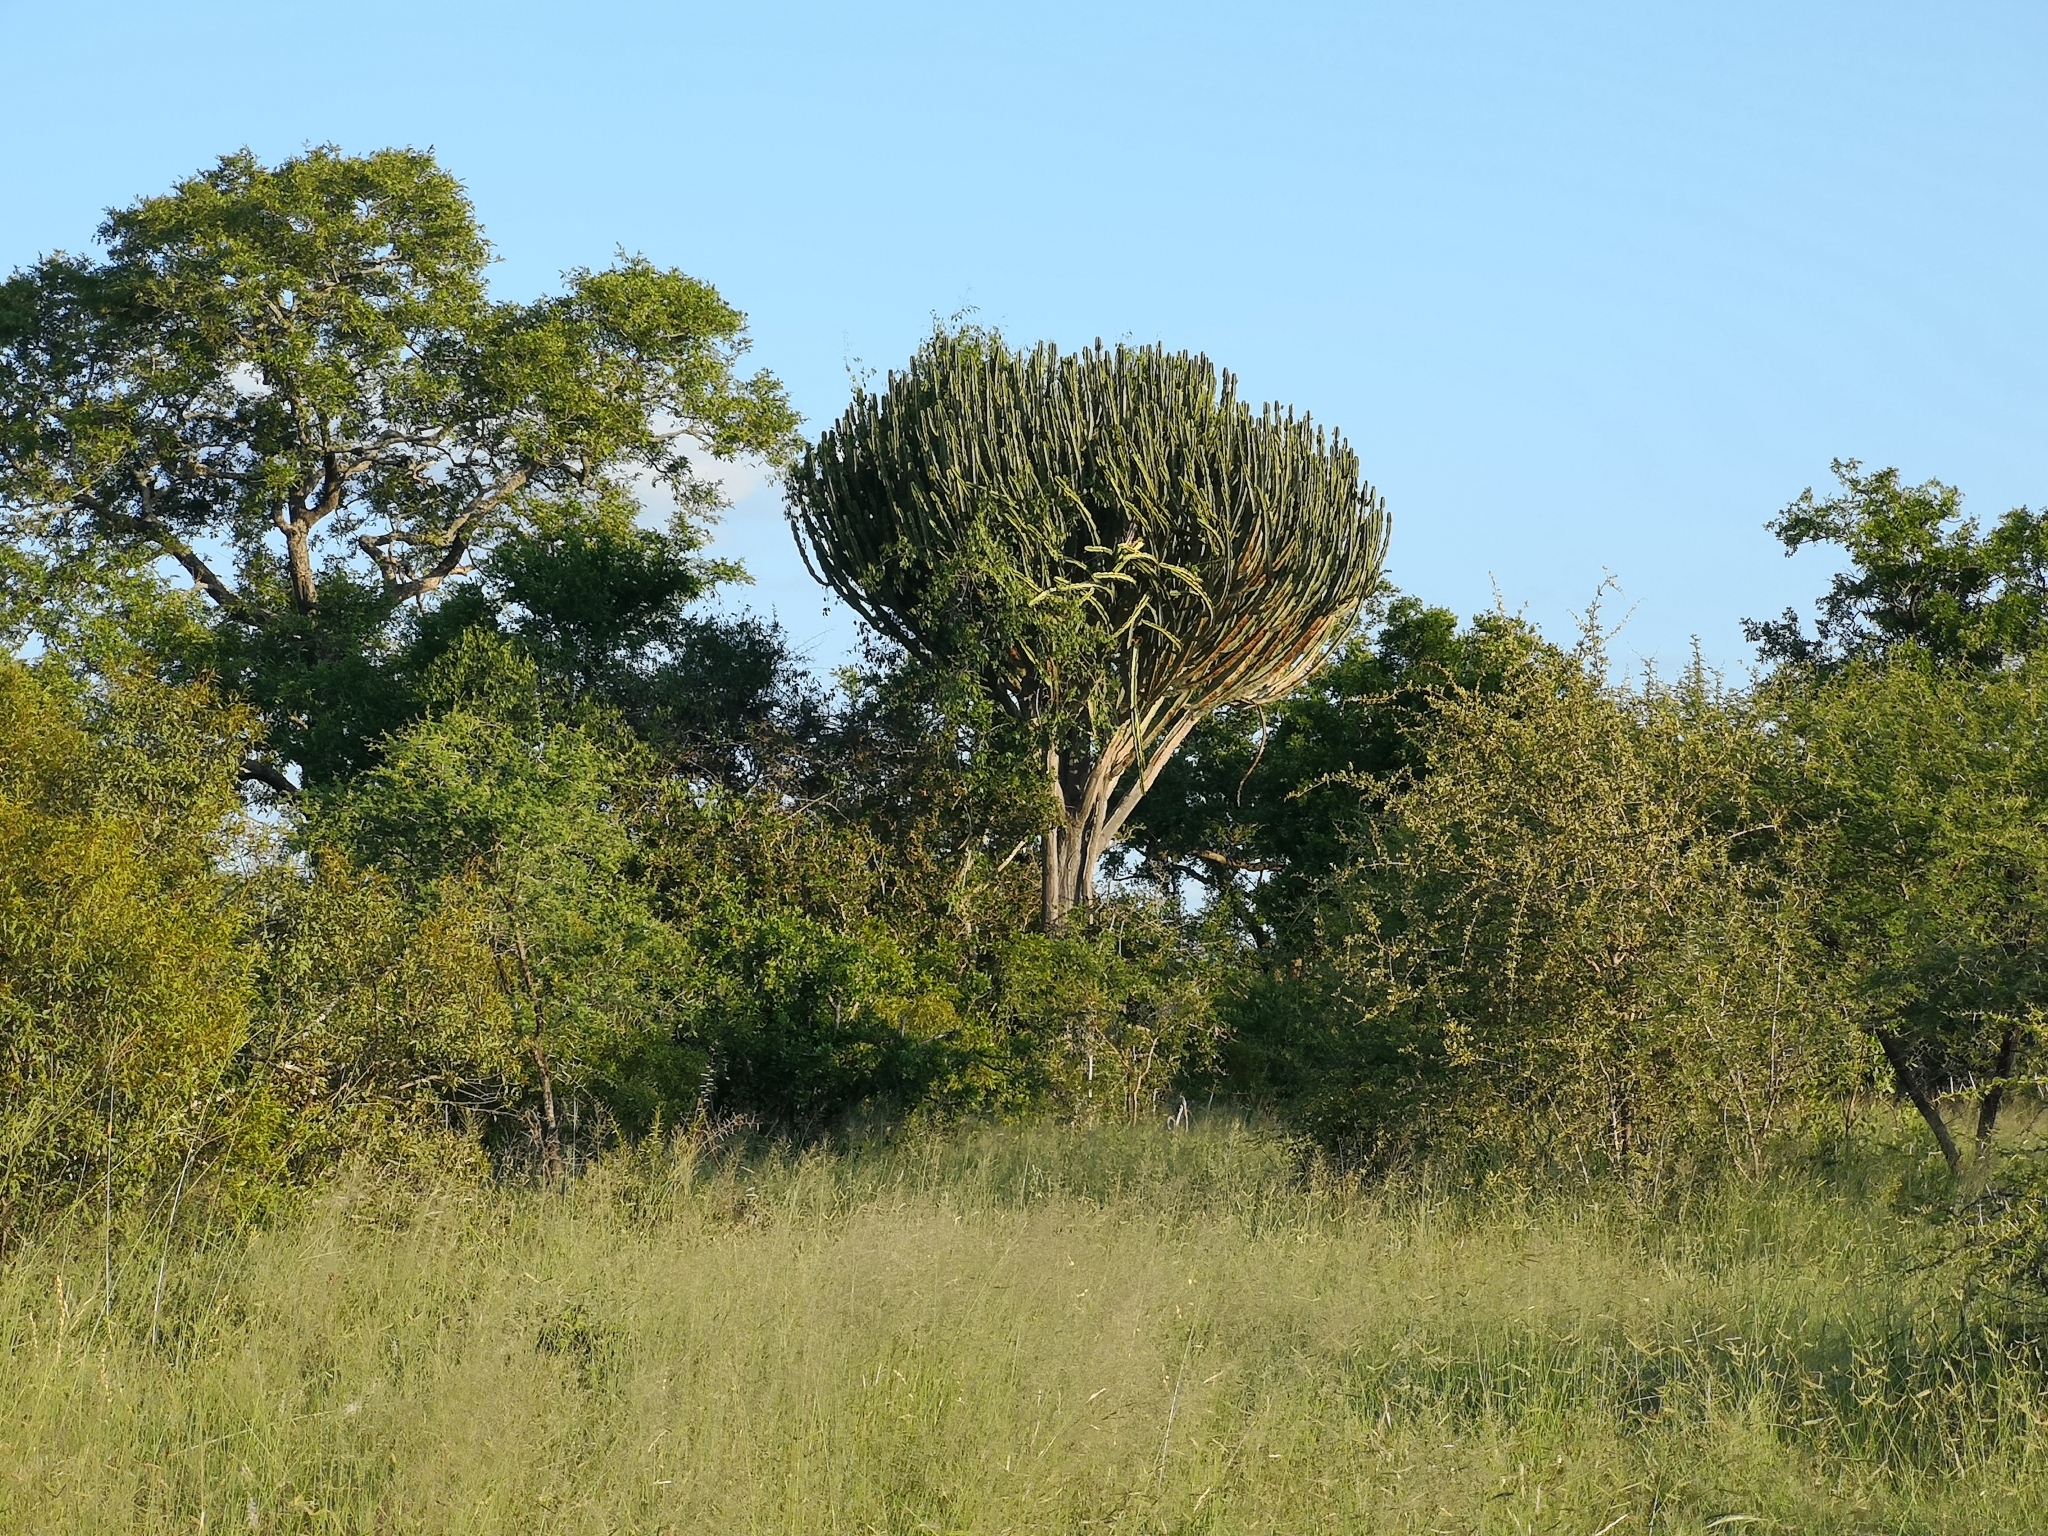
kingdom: Plantae
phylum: Tracheophyta
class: Magnoliopsida
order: Malpighiales
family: Euphorbiaceae
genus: Euphorbia
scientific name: Euphorbia ingens
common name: Cactus spurge
